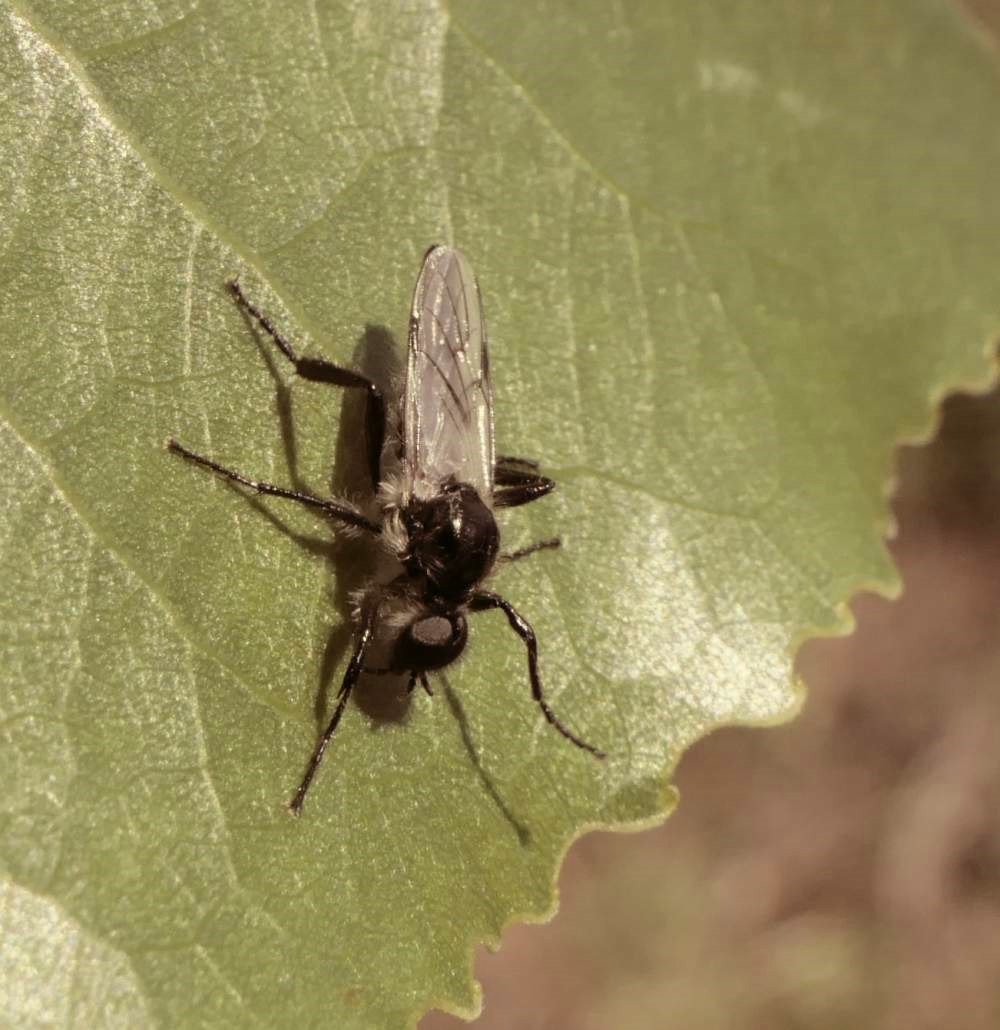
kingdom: Animalia
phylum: Arthropoda
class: Insecta
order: Diptera
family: Bibionidae
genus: Bibio
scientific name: Bibio albipennis
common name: White-winged march fly
